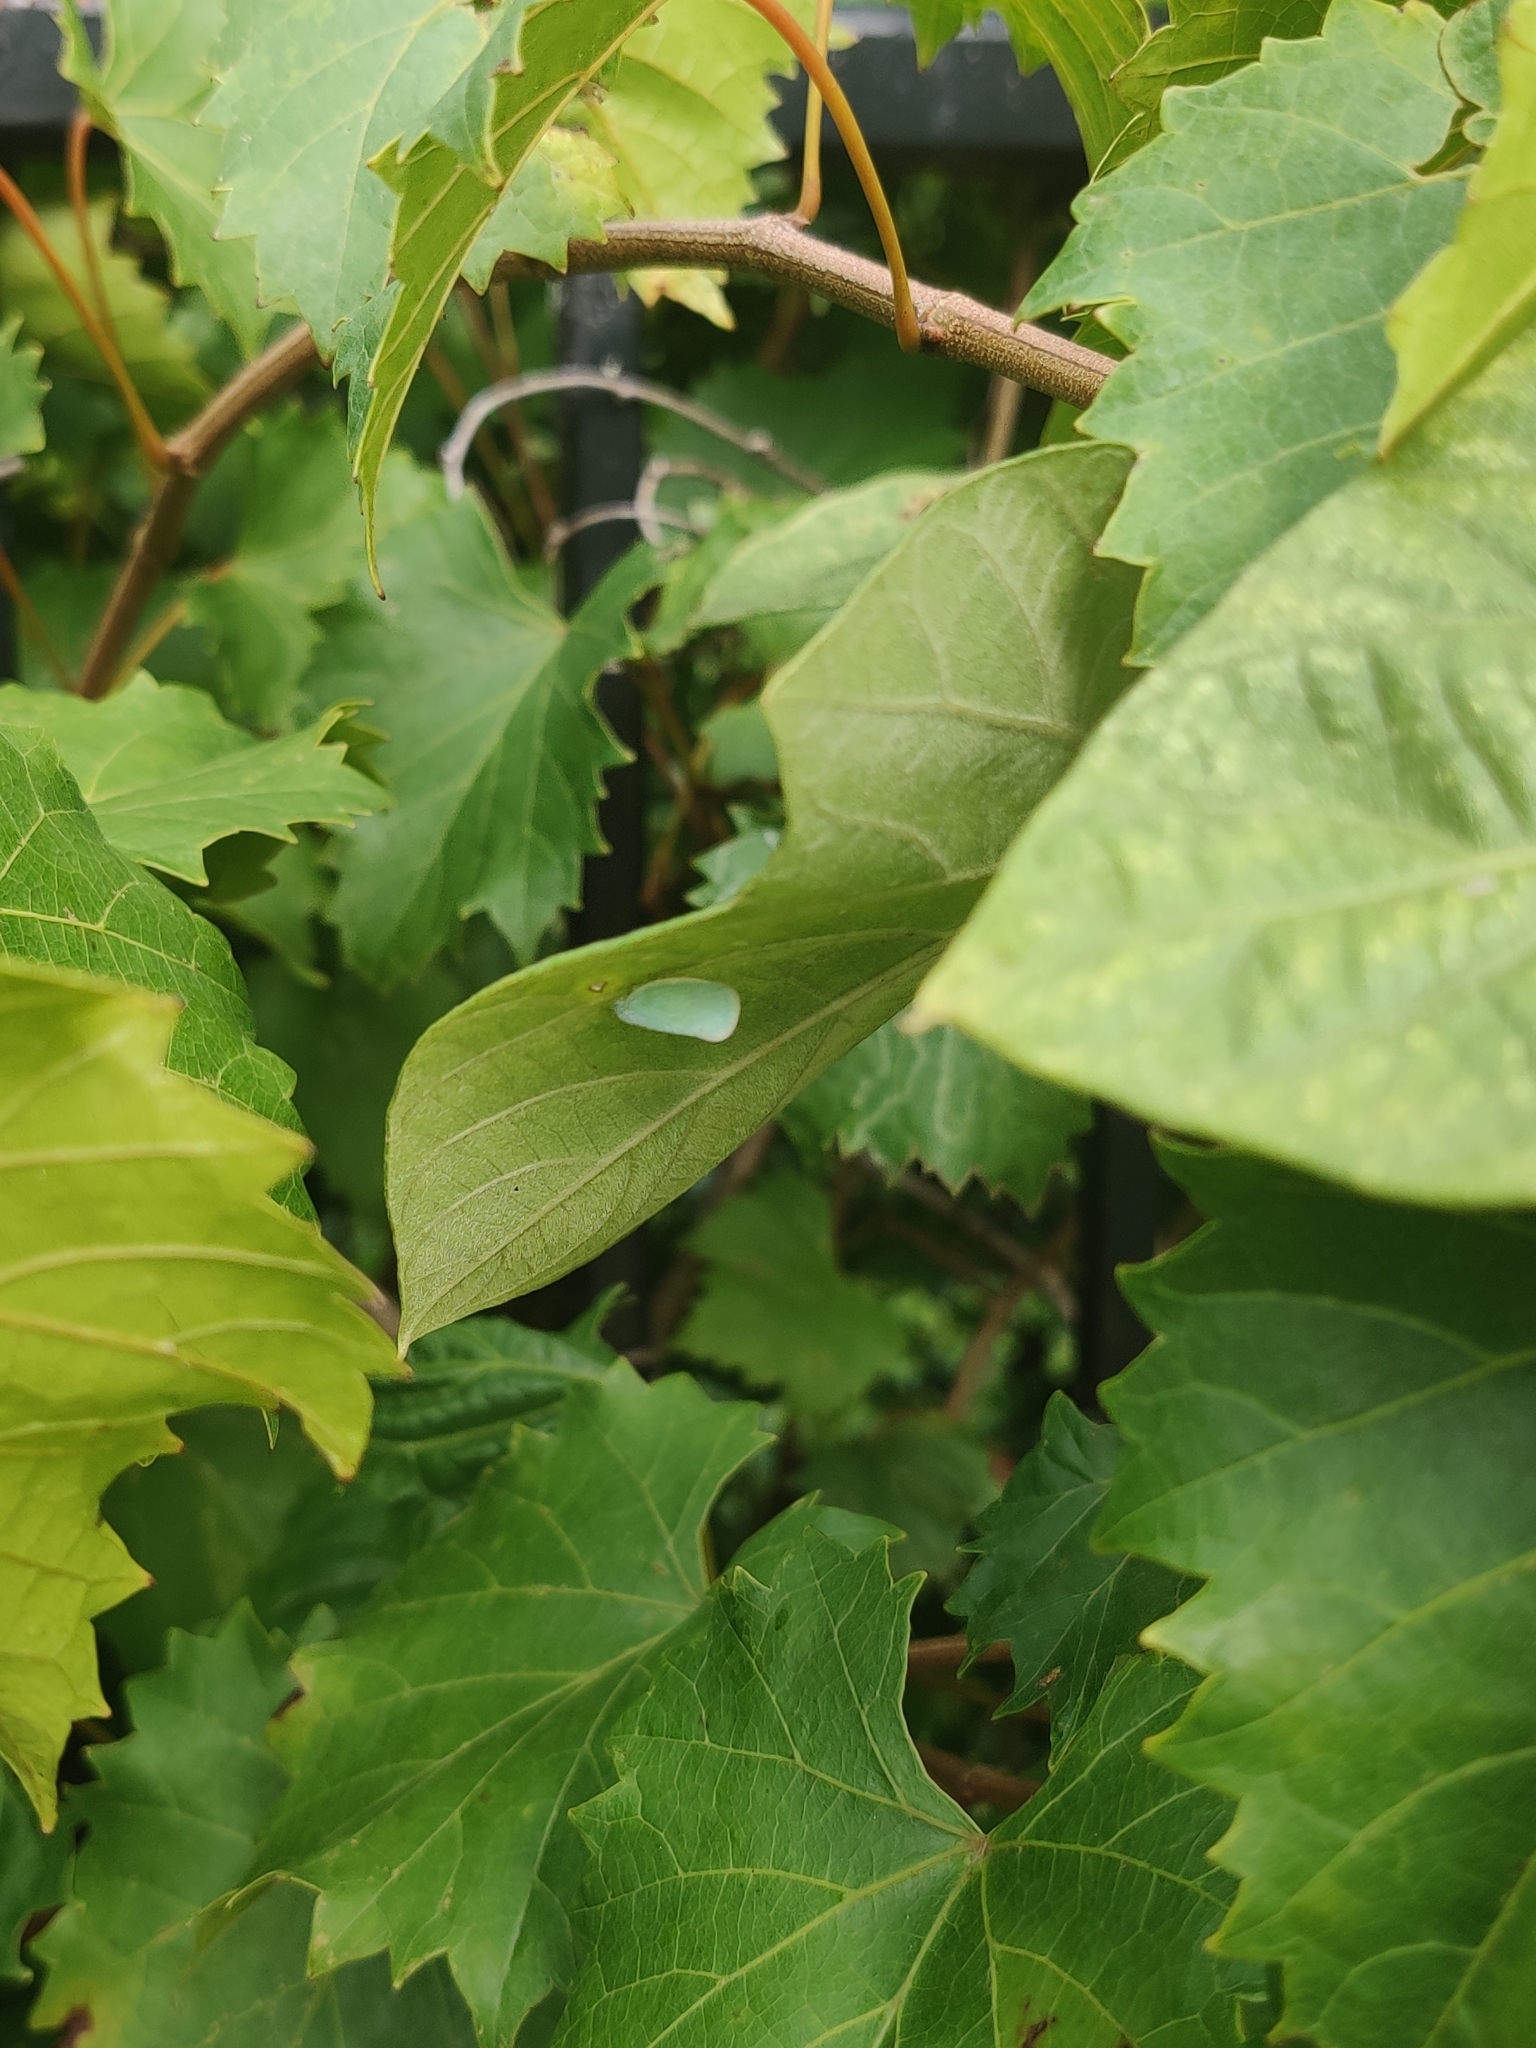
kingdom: Animalia
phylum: Arthropoda
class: Insecta
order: Hemiptera
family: Flatidae
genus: Ormenoides
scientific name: Ormenoides venusta
